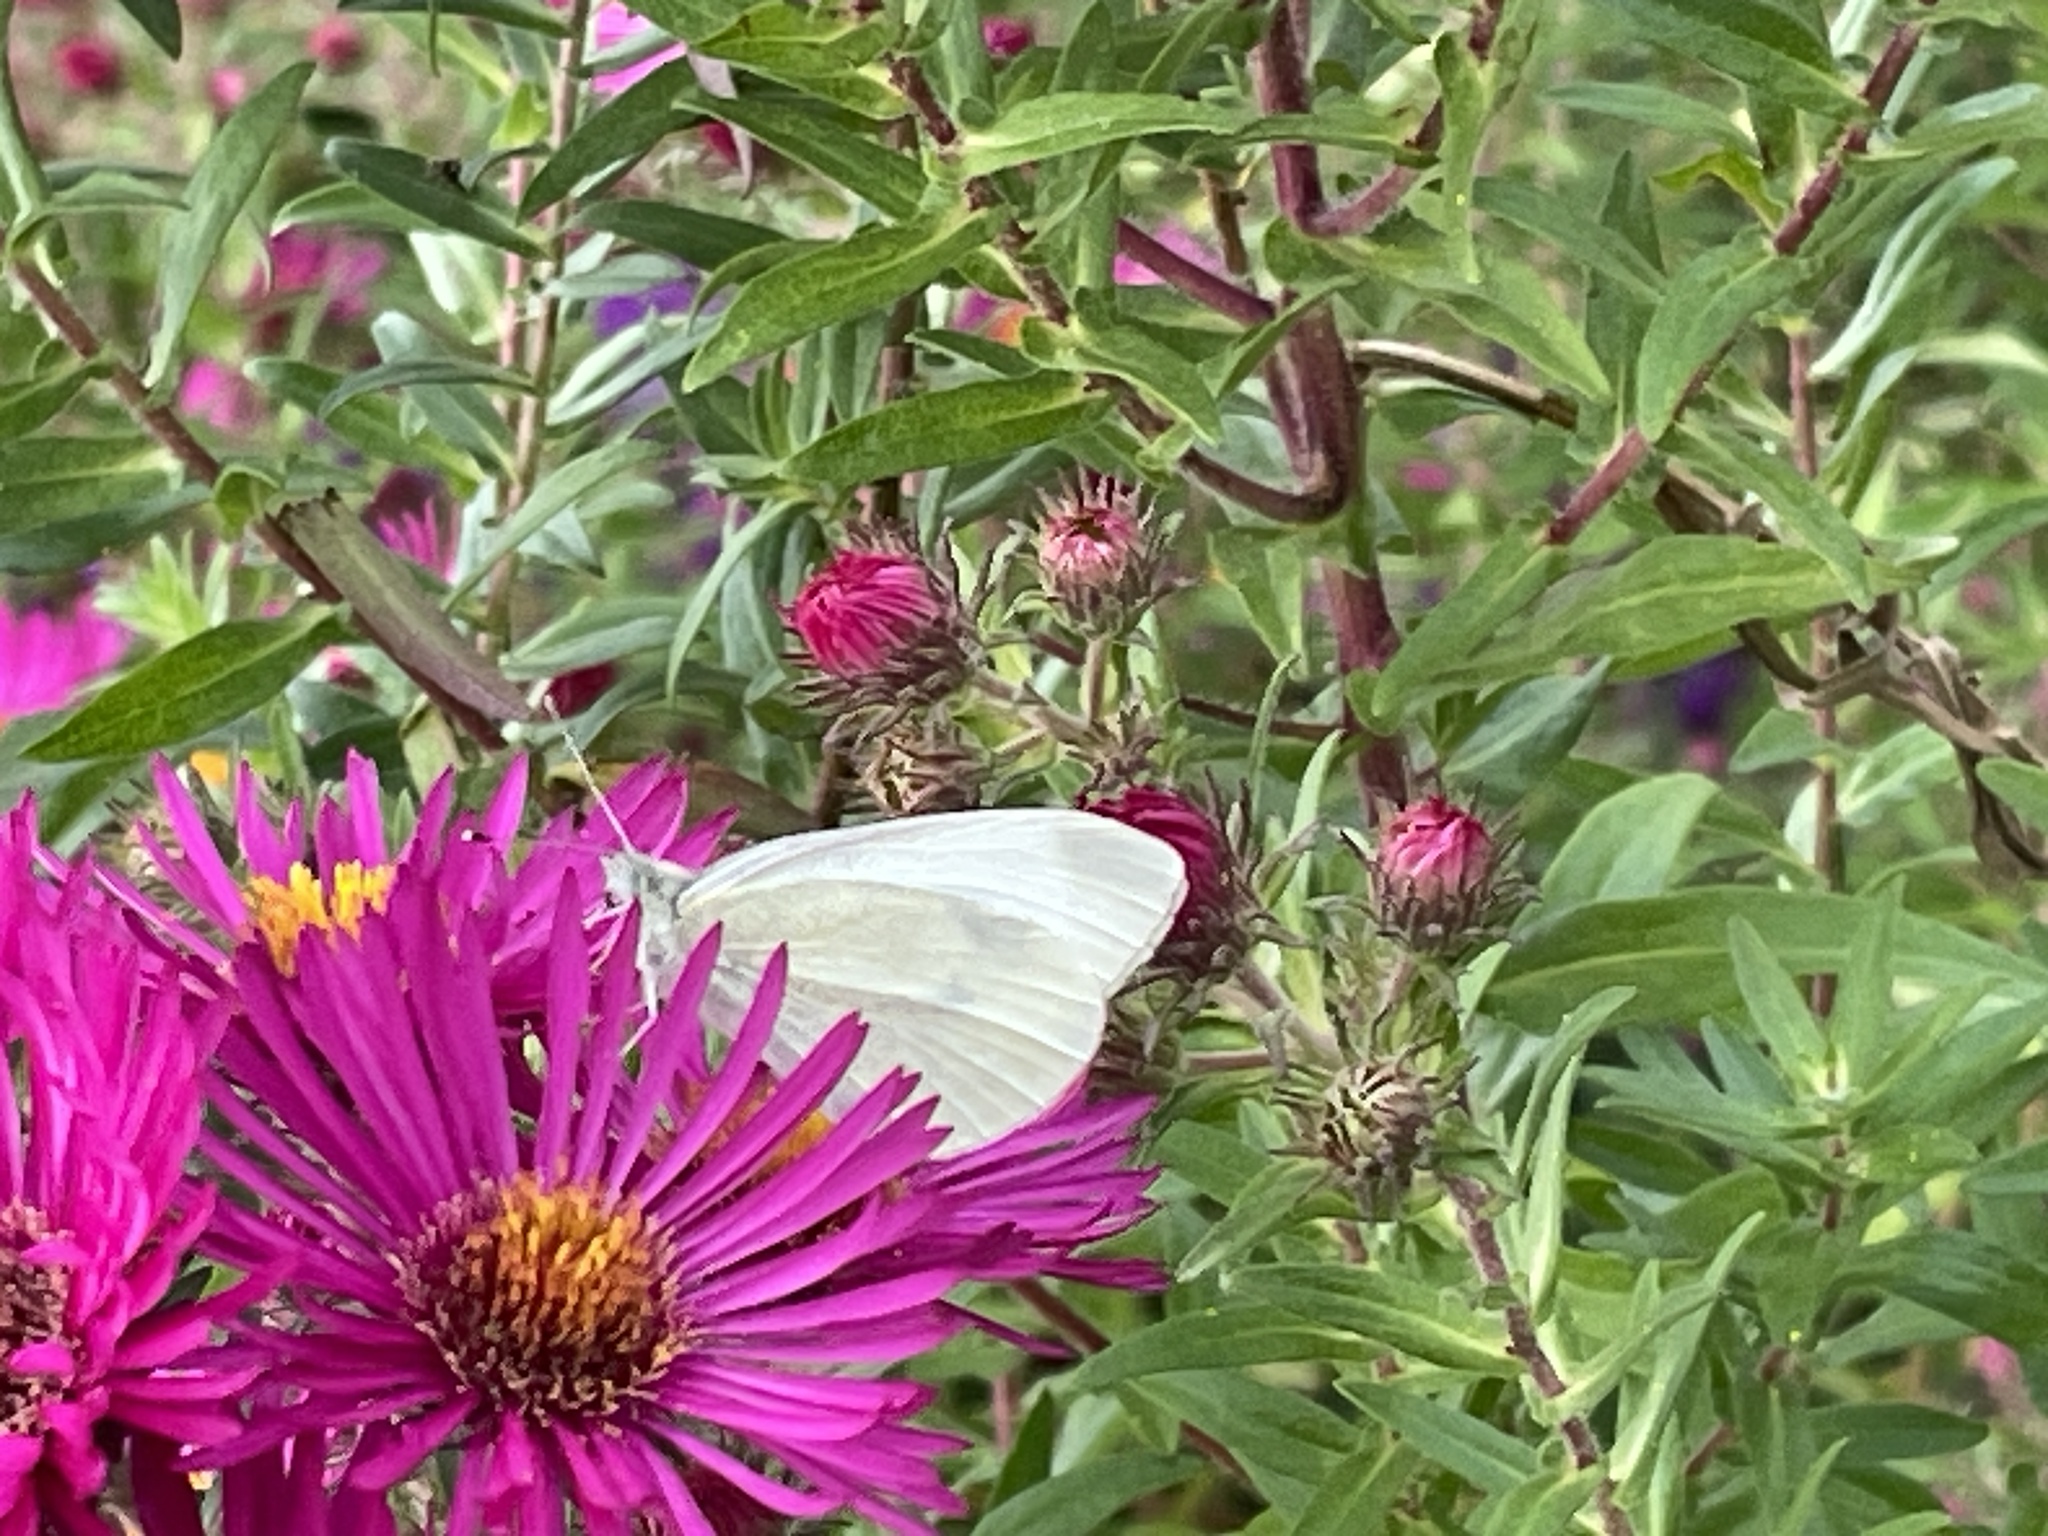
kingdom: Animalia
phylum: Arthropoda
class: Insecta
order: Lepidoptera
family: Pieridae
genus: Pieris
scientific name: Pieris rapae
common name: Small white
